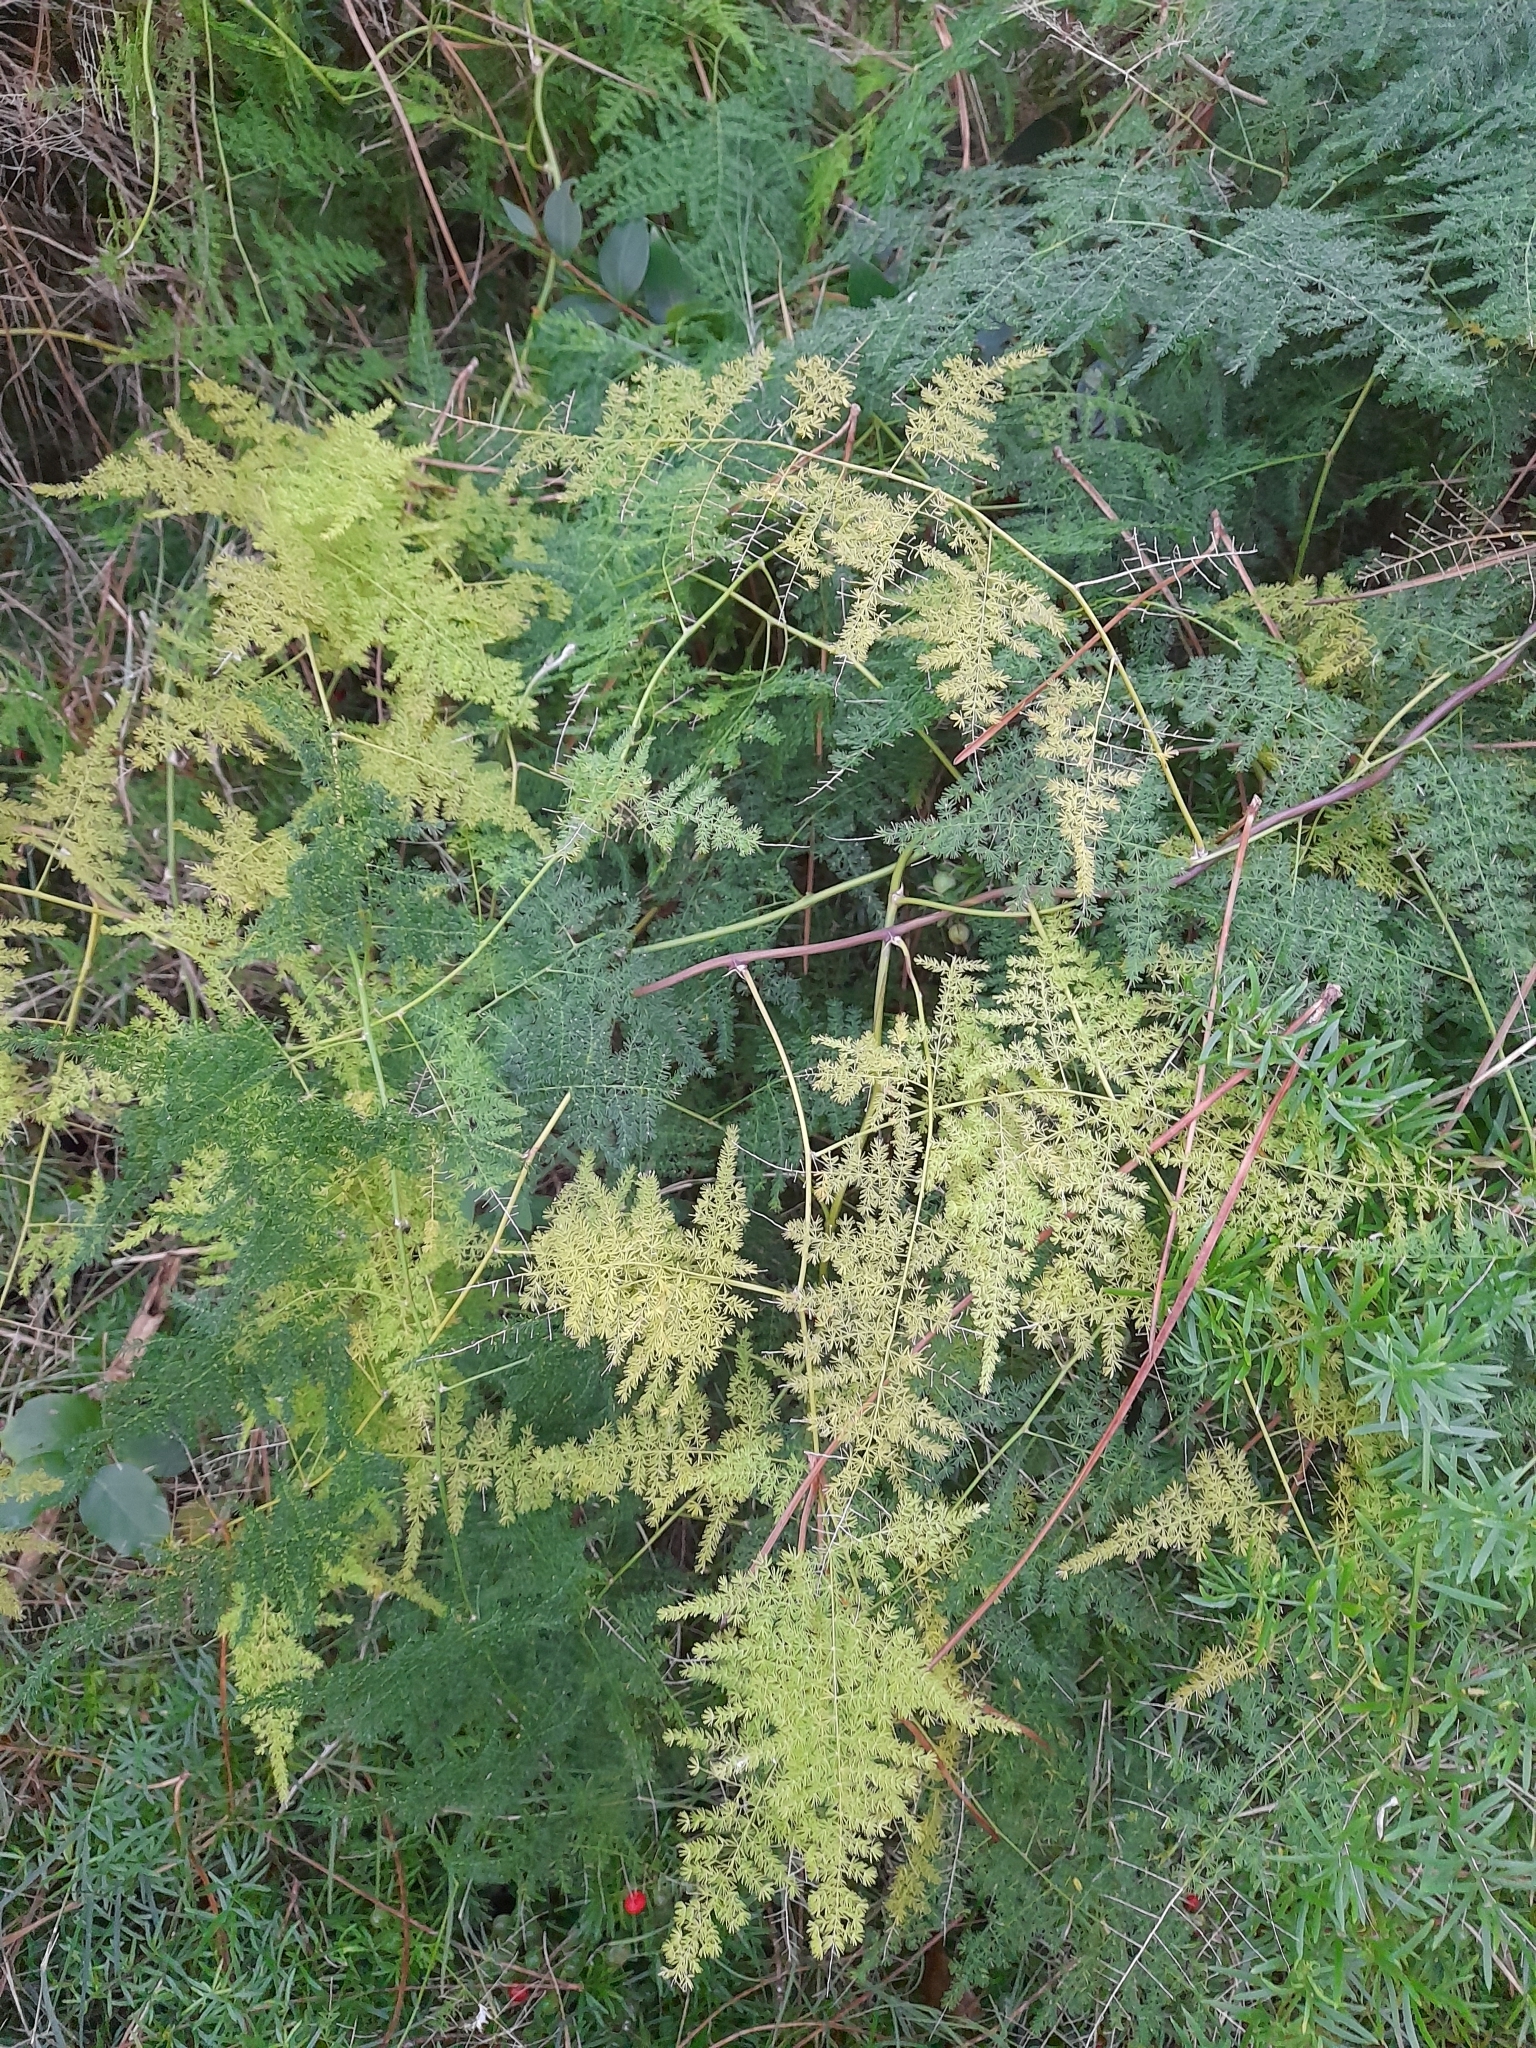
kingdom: Plantae
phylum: Tracheophyta
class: Liliopsida
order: Asparagales
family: Asparagaceae
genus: Asparagus
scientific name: Asparagus setaceus
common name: Common asparagus fern
